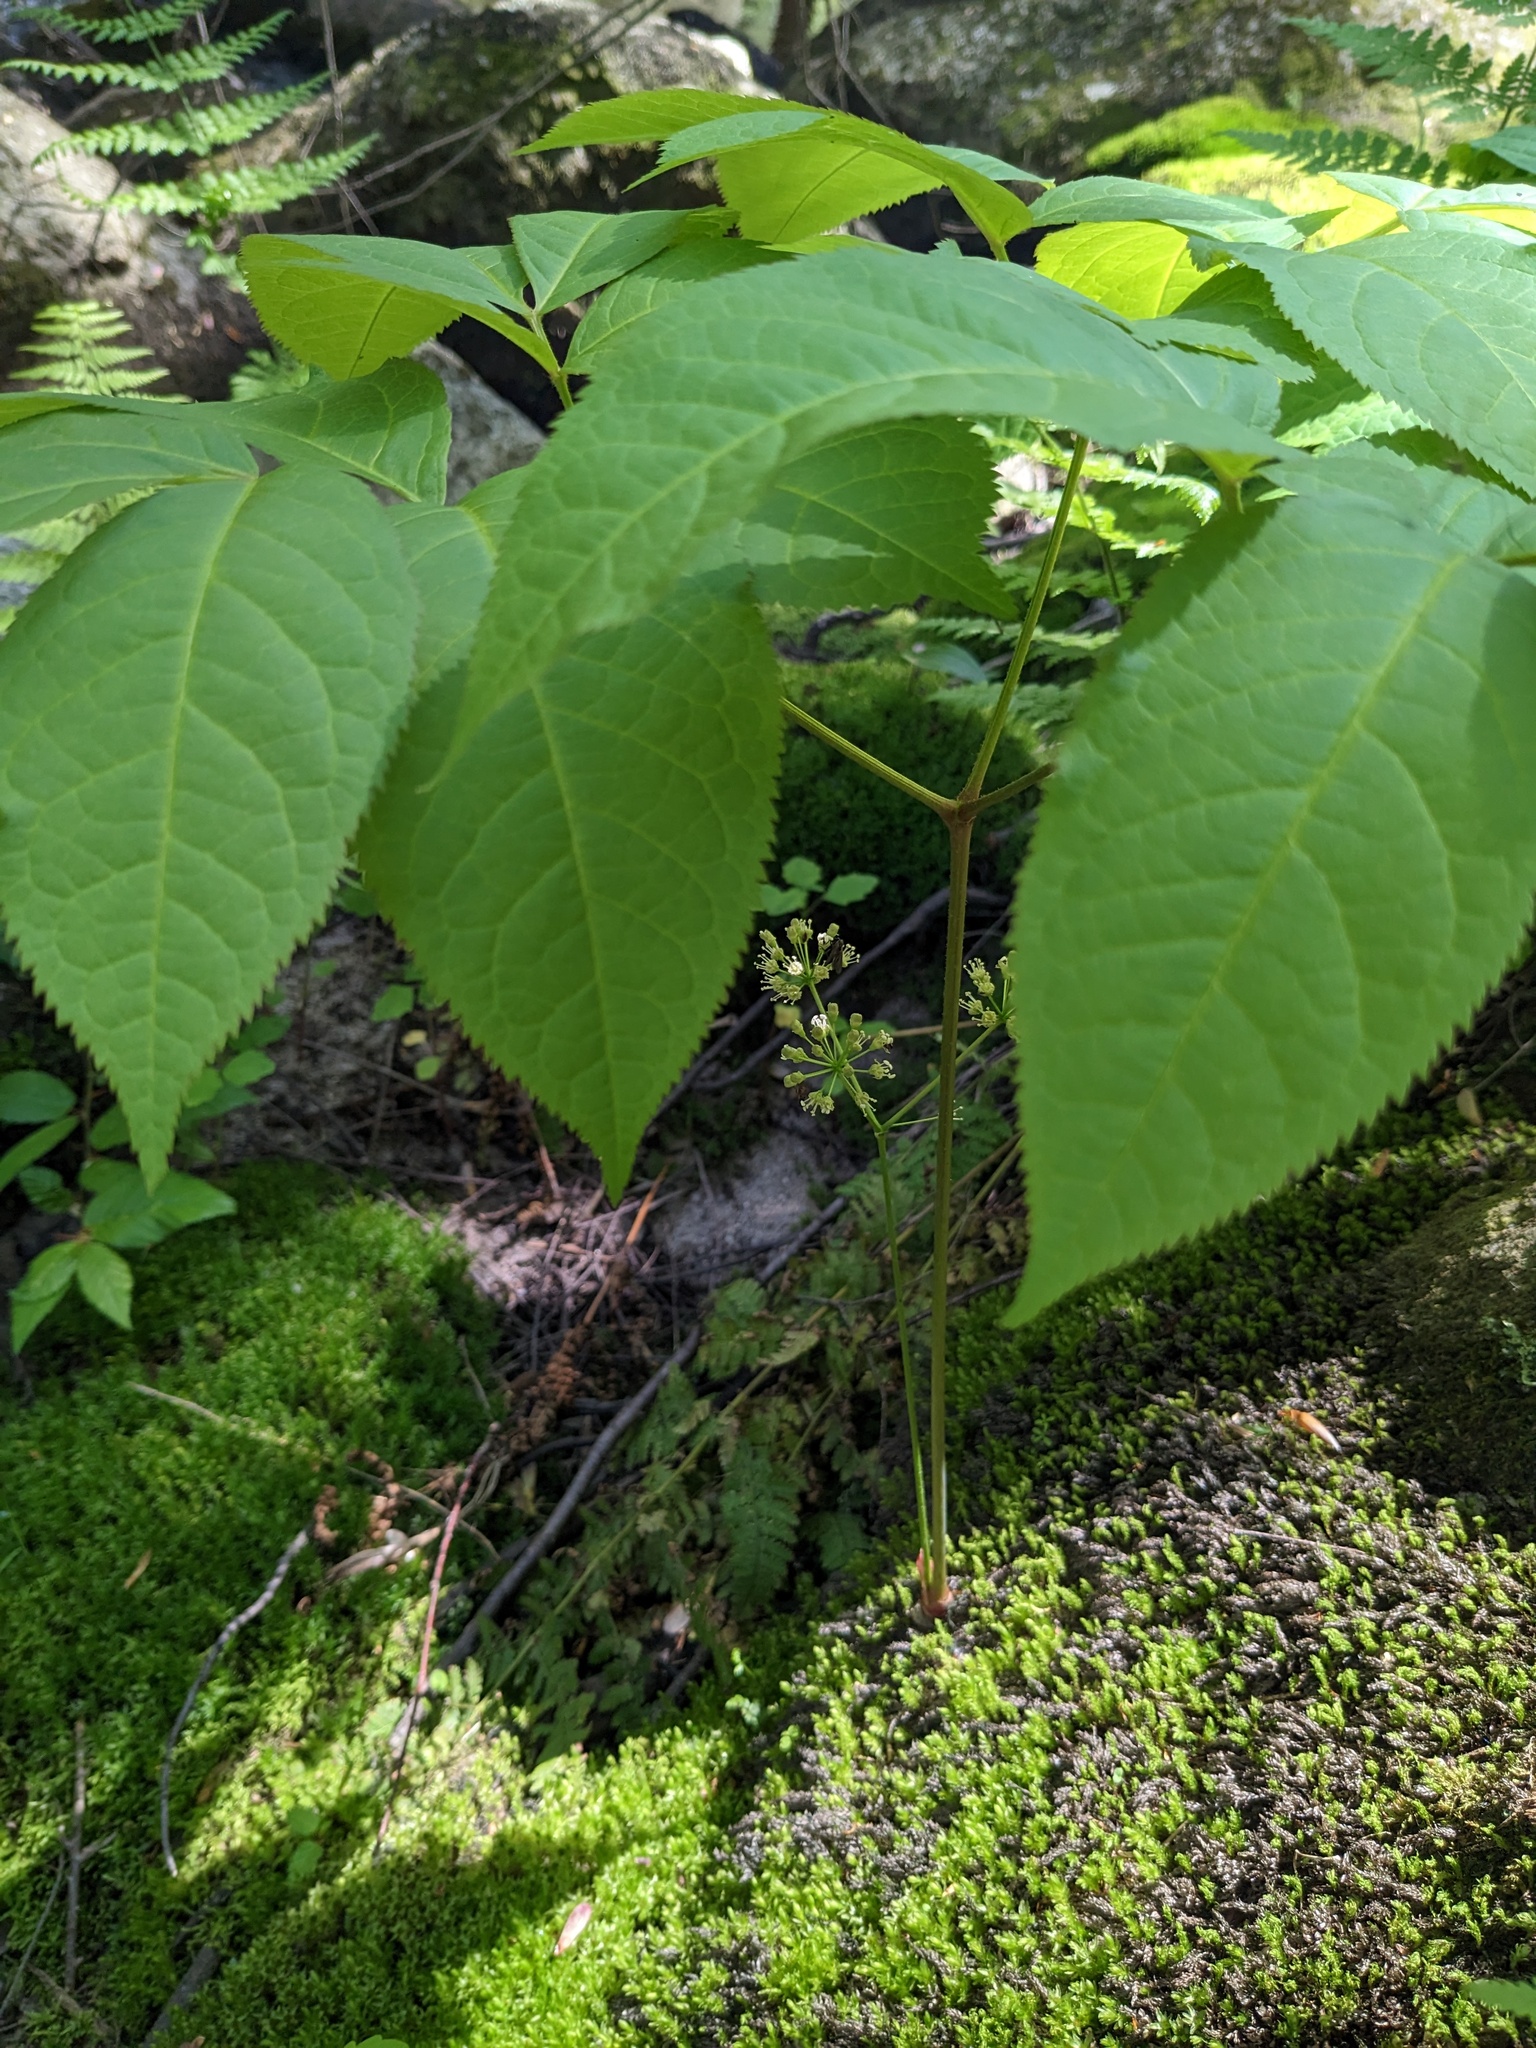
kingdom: Plantae
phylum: Tracheophyta
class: Magnoliopsida
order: Apiales
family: Araliaceae
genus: Aralia
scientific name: Aralia nudicaulis
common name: Wild sarsaparilla
